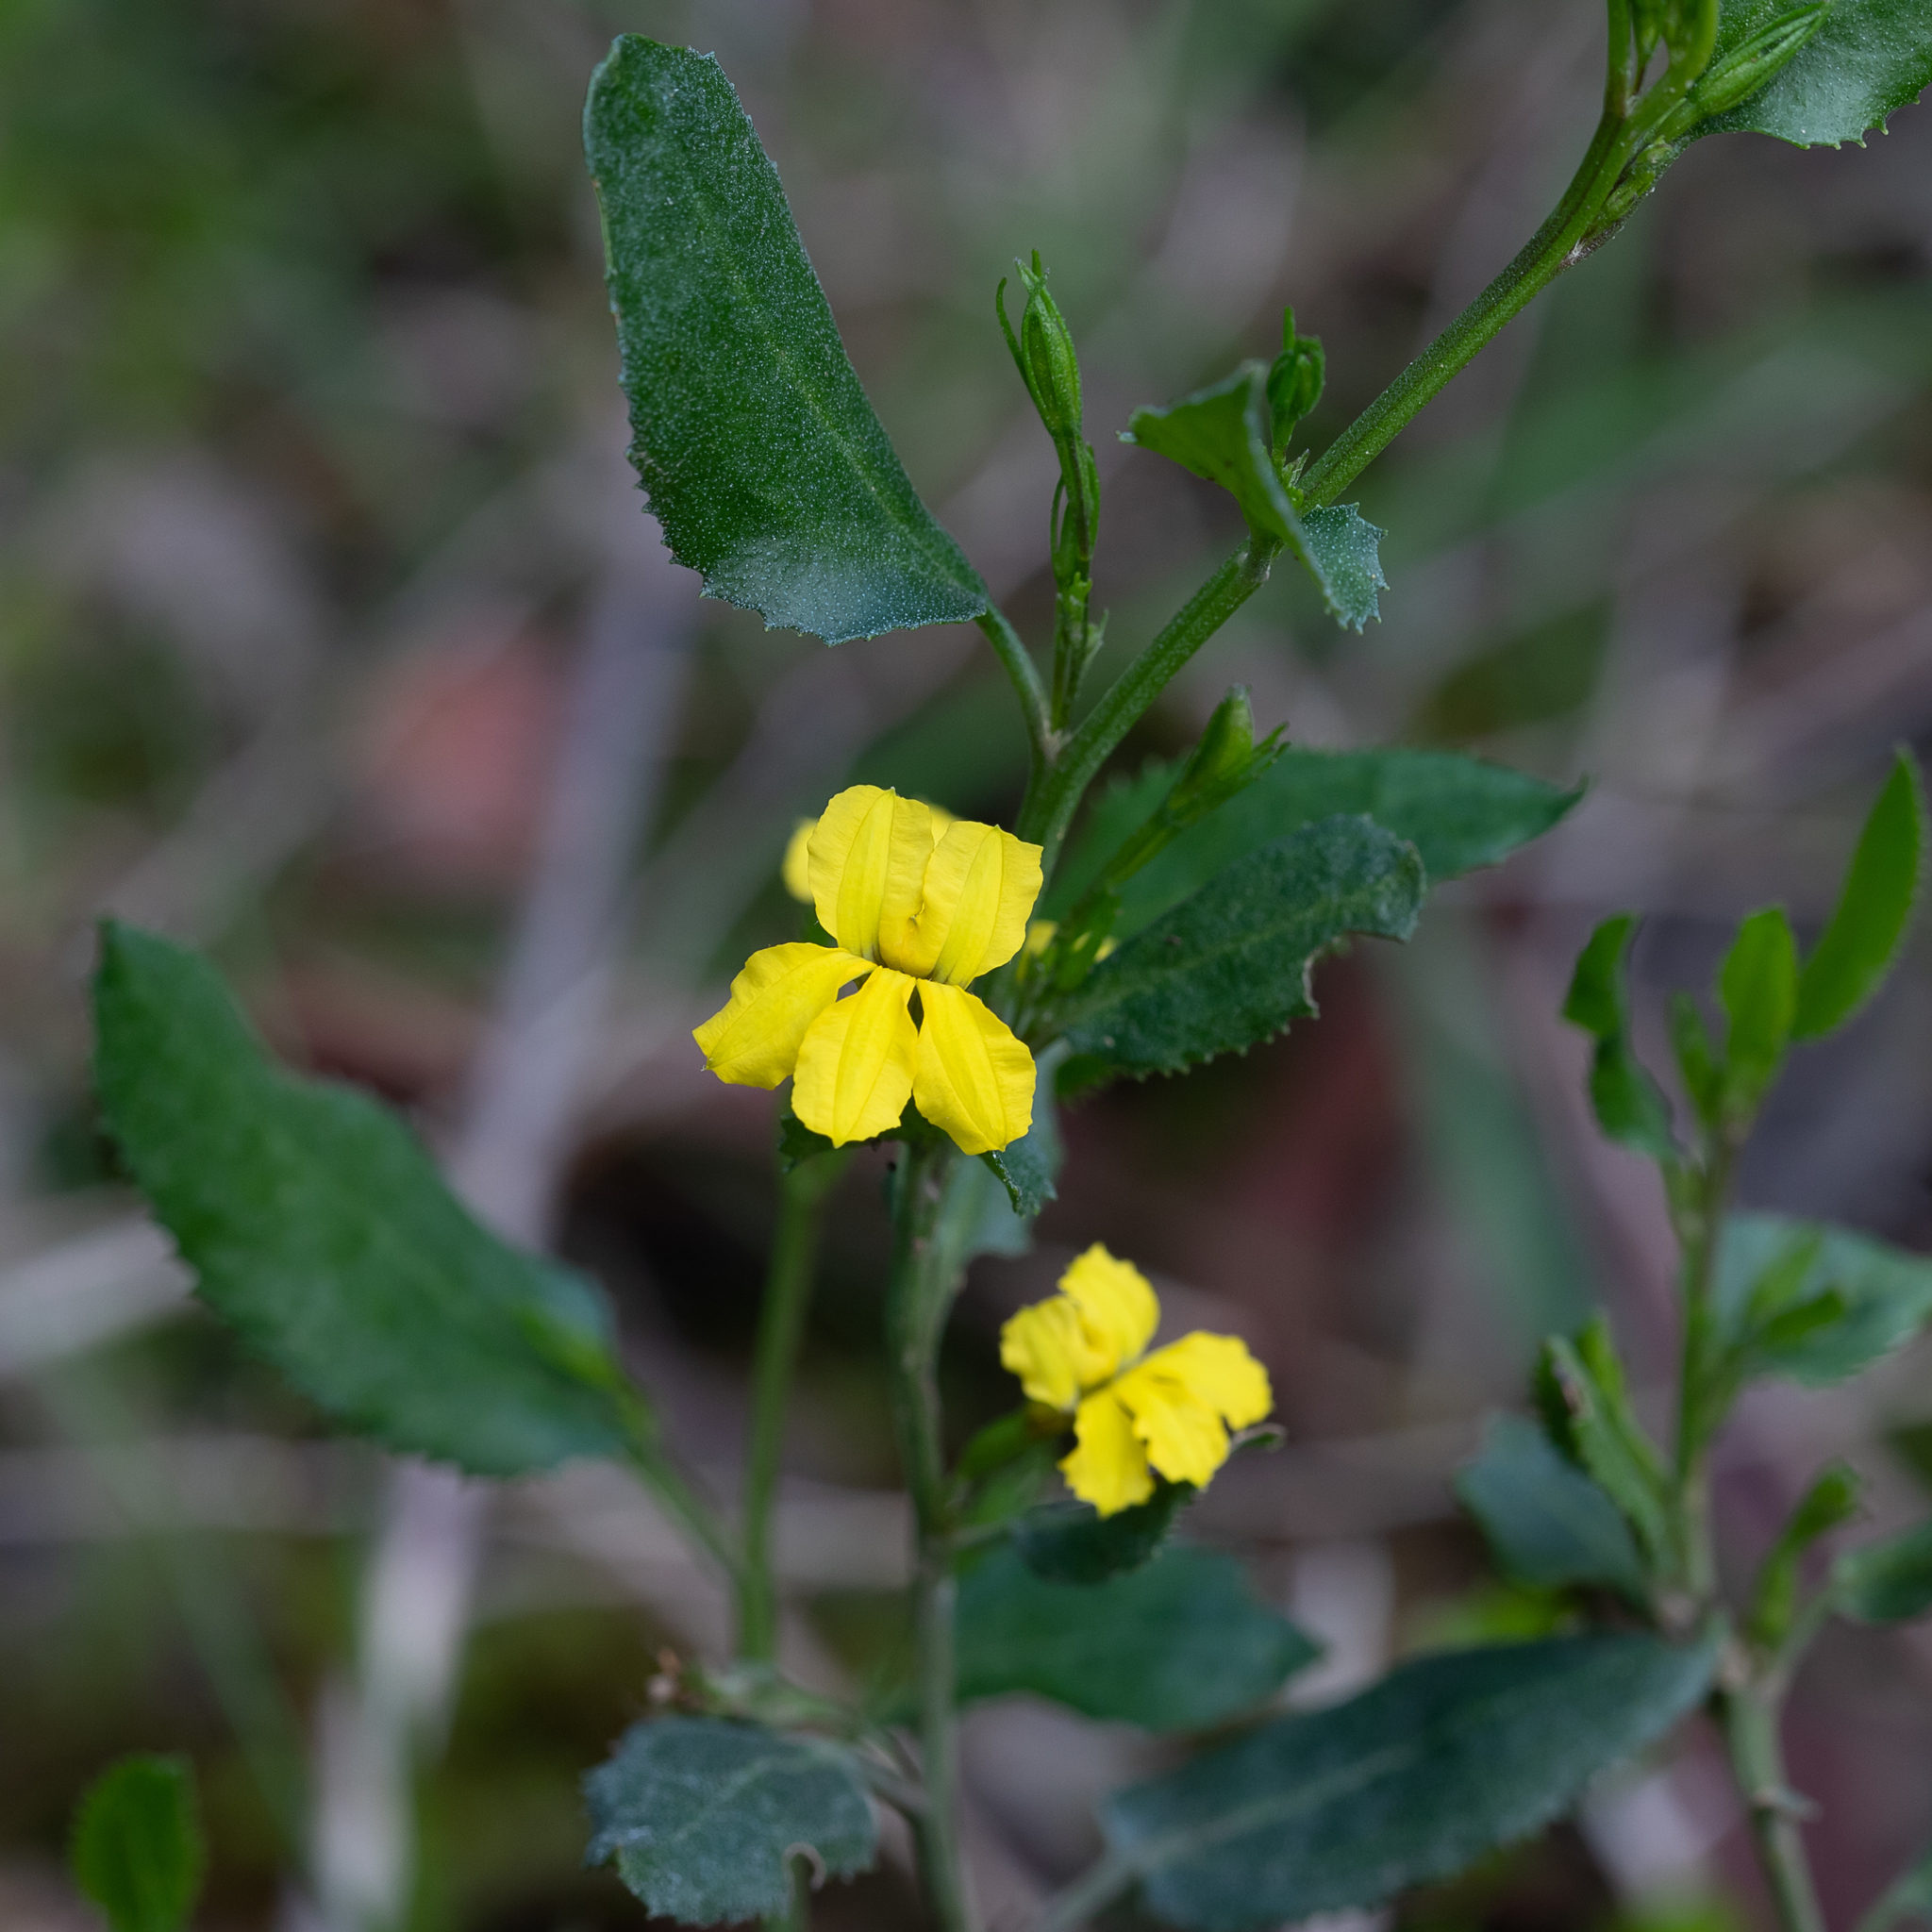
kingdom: Plantae
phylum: Tracheophyta
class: Magnoliopsida
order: Asterales
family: Goodeniaceae
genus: Goodenia
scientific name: Goodenia ovata
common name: Hop goodenia
